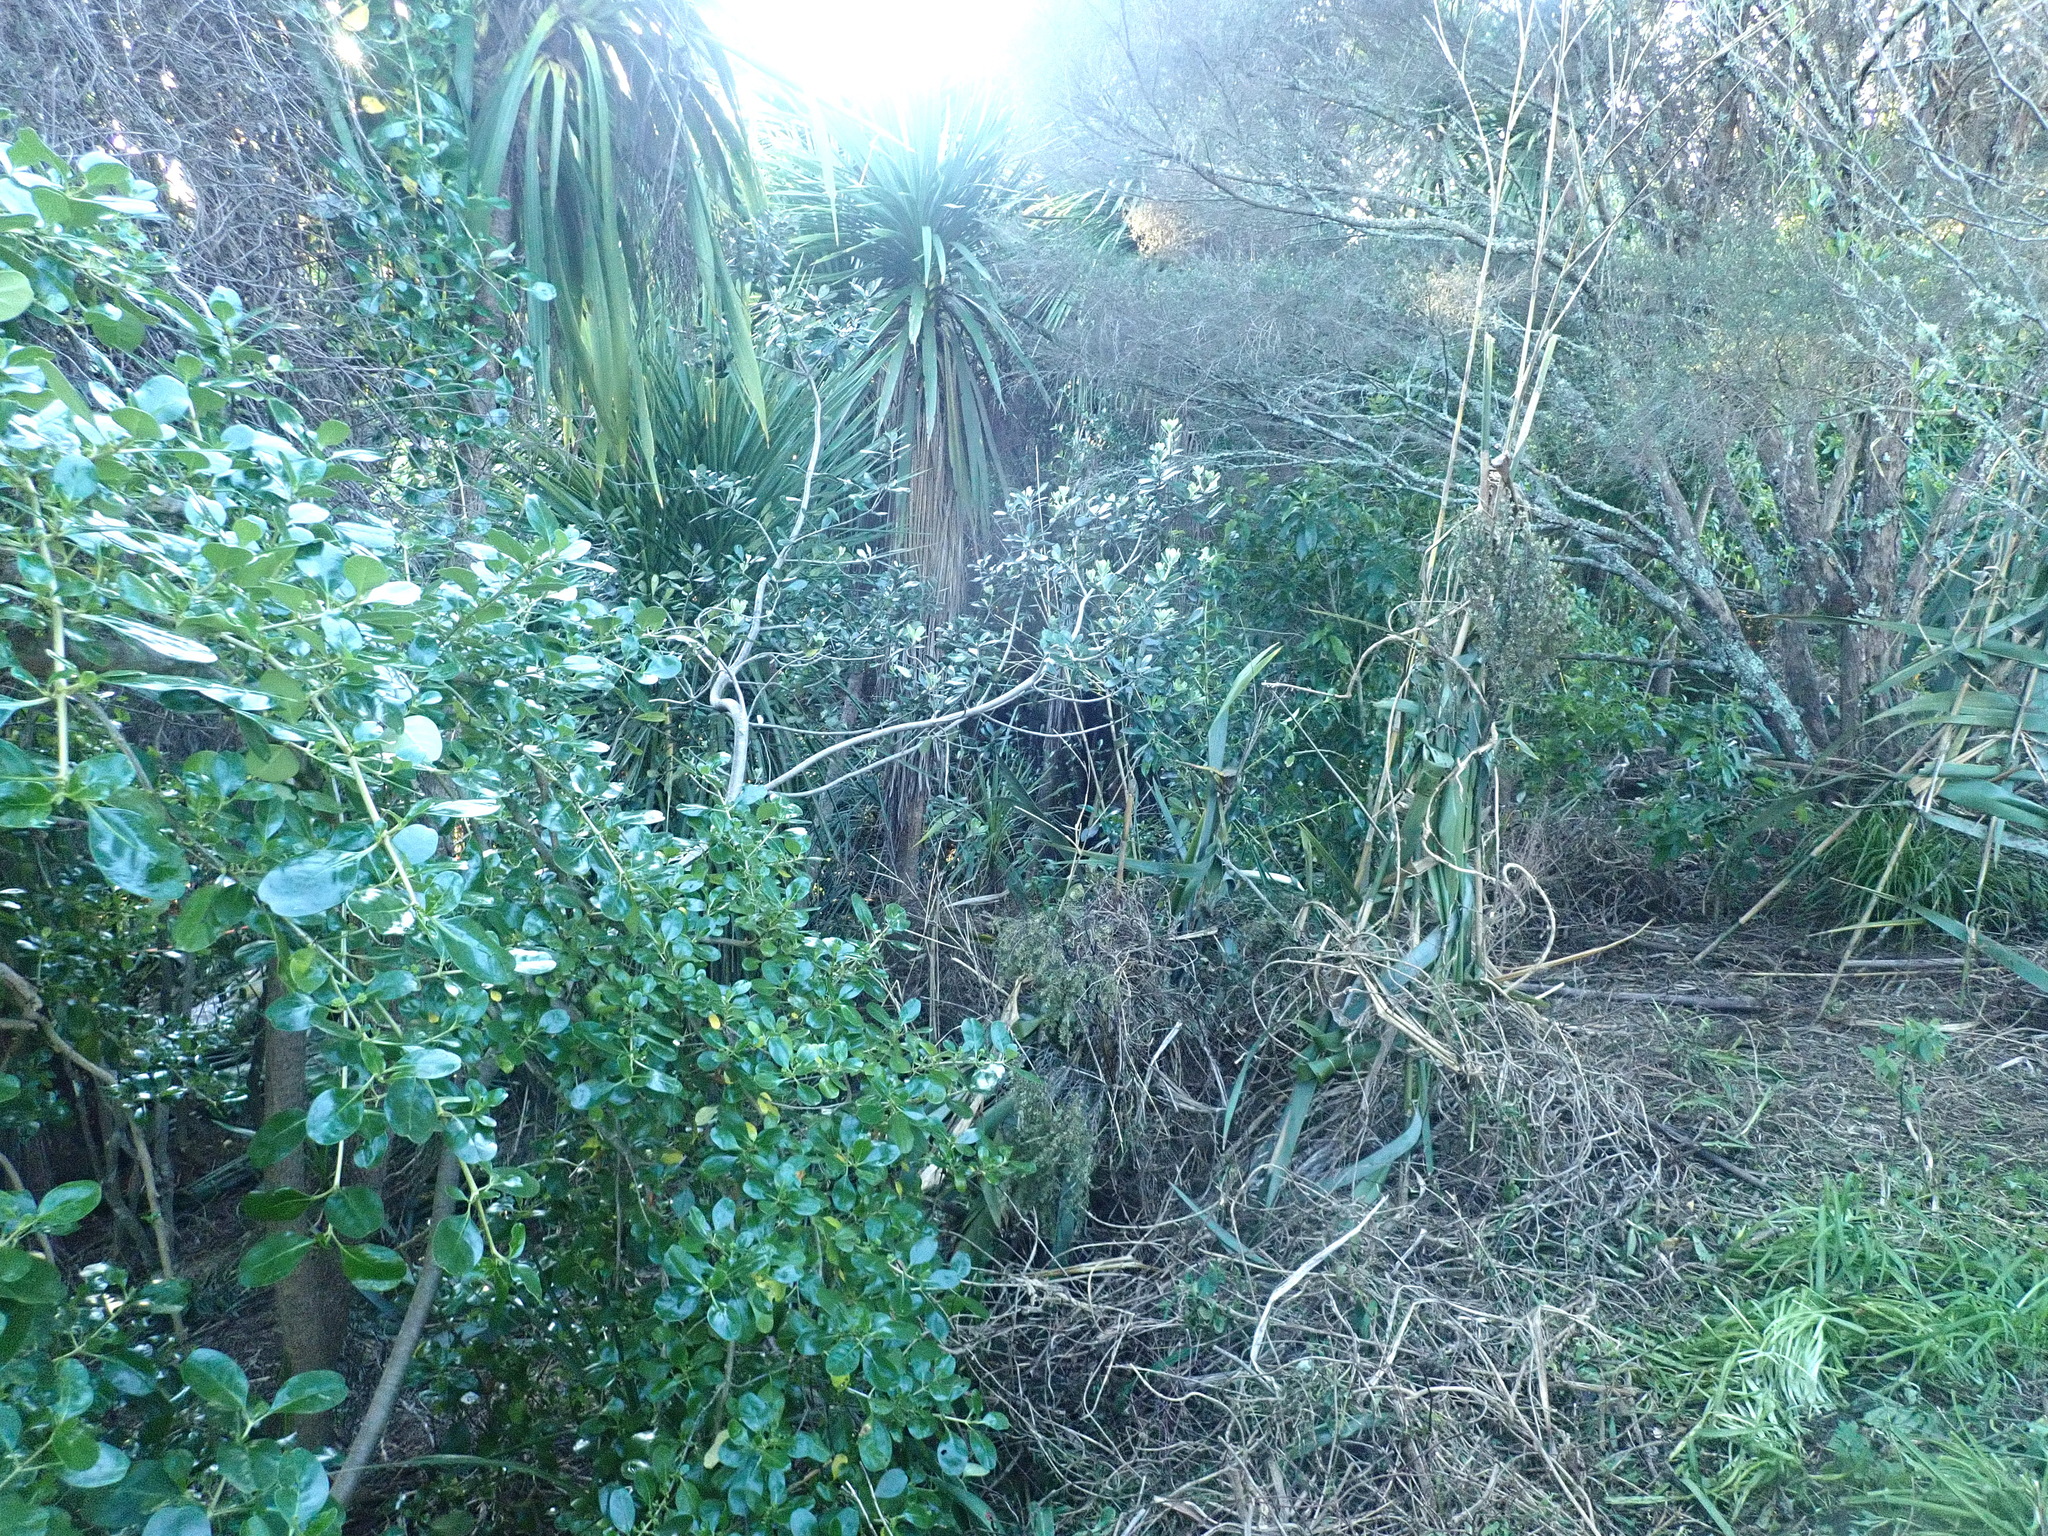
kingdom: Plantae
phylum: Tracheophyta
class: Magnoliopsida
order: Apiales
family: Pittosporaceae
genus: Pittosporum
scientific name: Pittosporum crassifolium
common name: Karo
